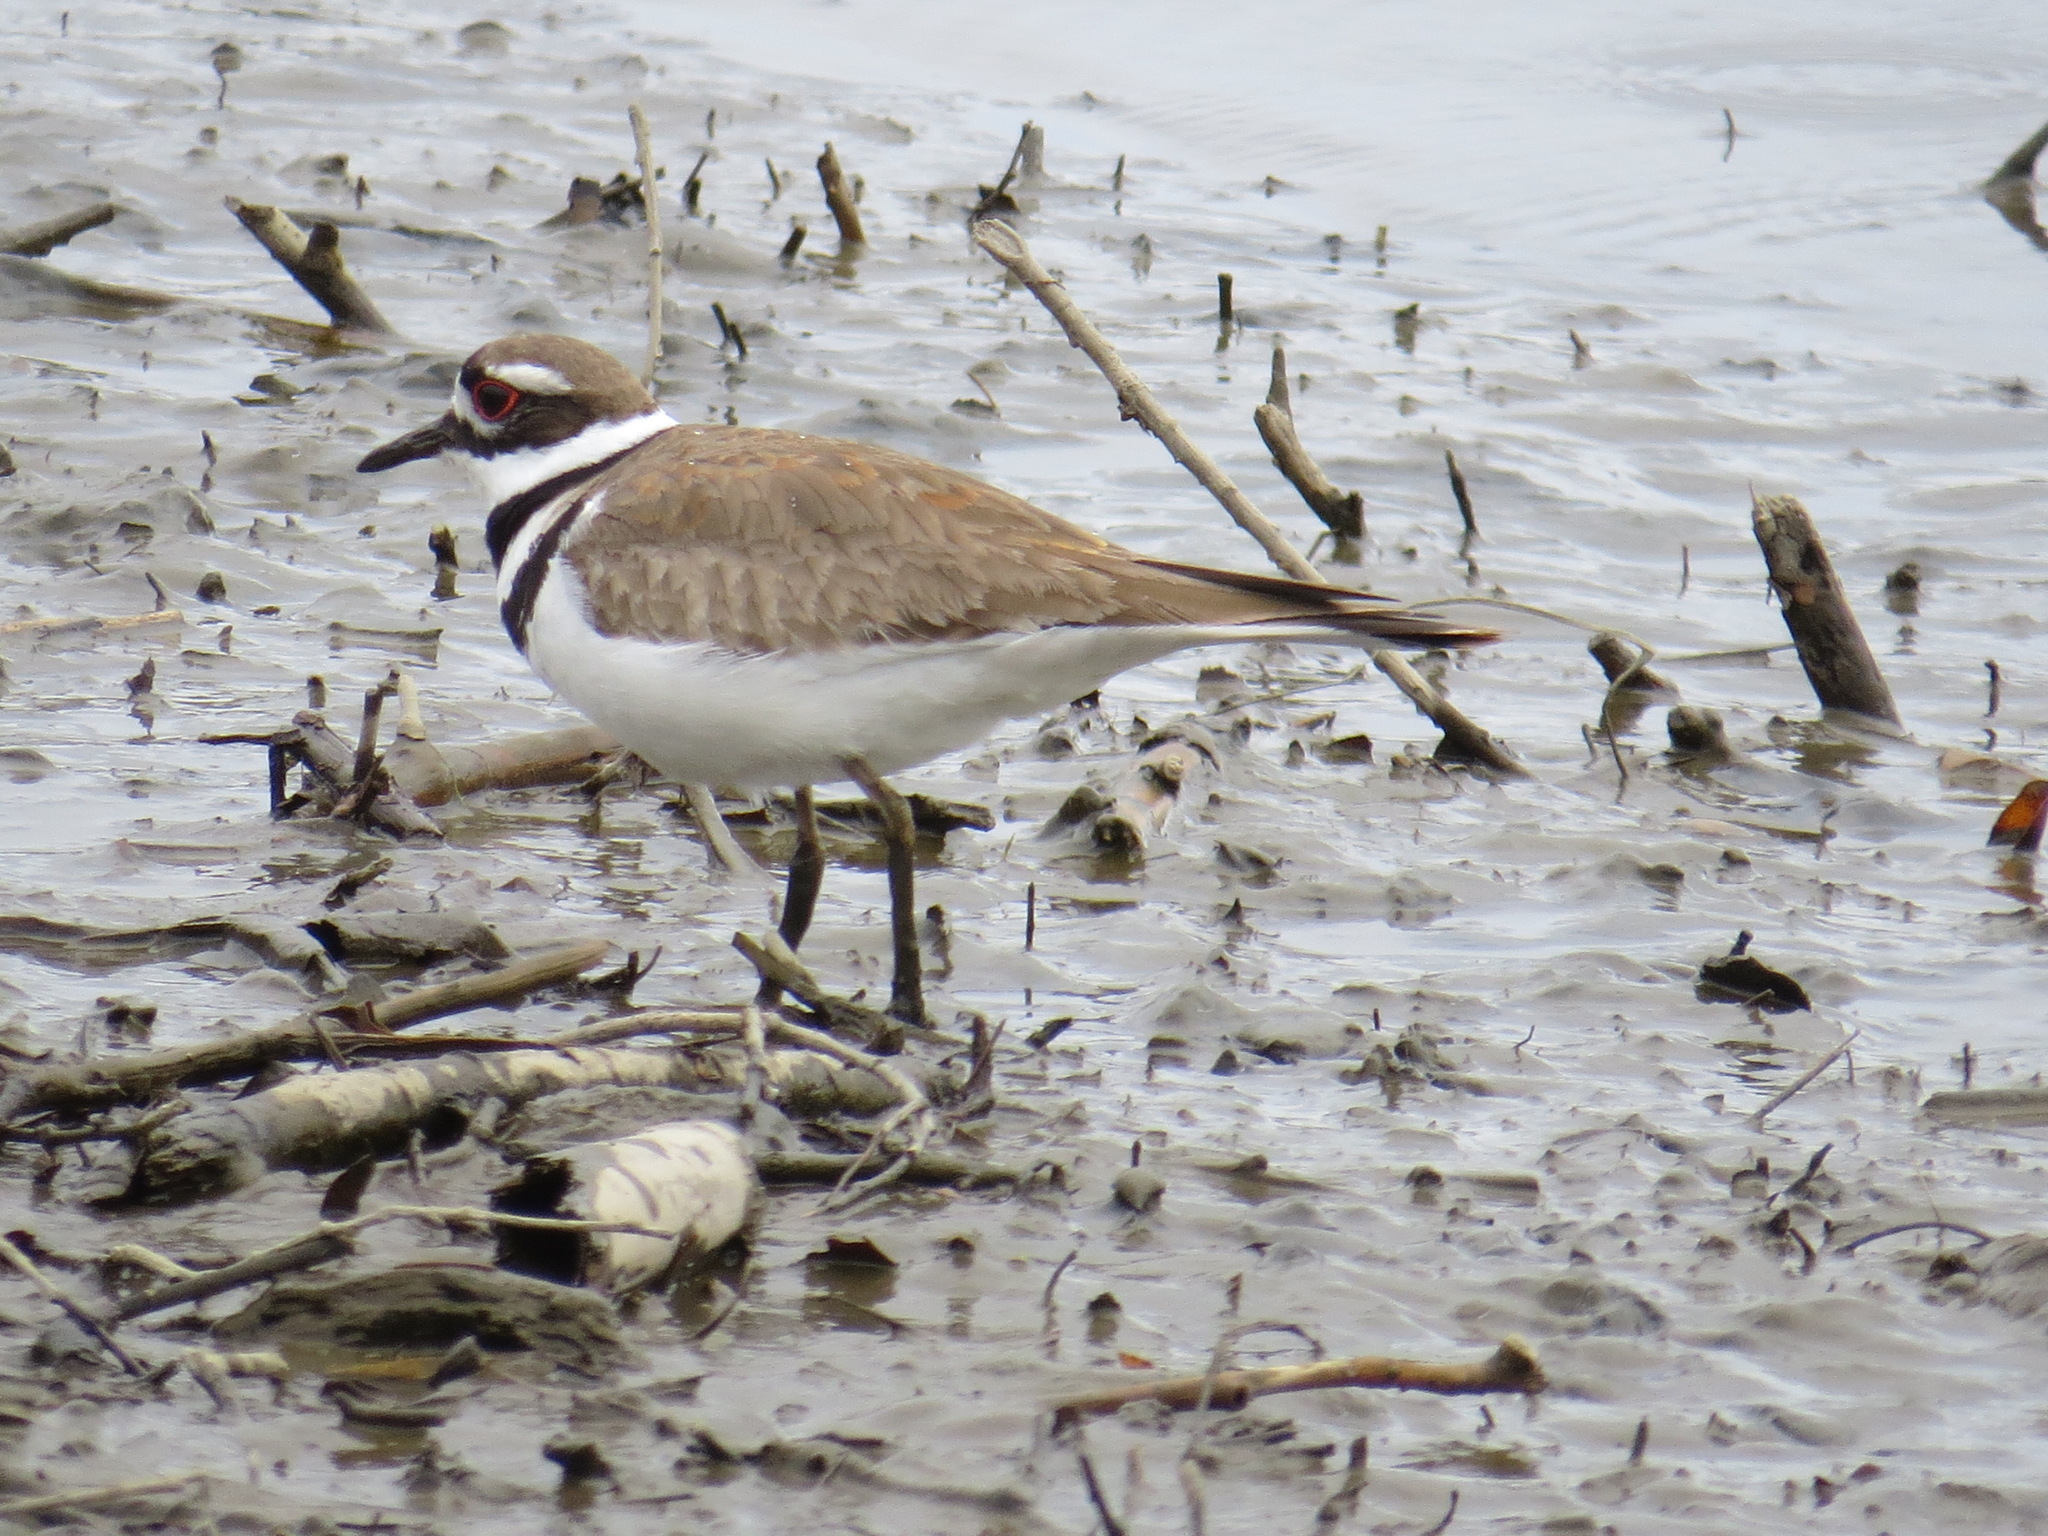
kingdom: Animalia
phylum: Chordata
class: Aves
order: Charadriiformes
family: Charadriidae
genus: Charadrius
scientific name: Charadrius vociferus
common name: Killdeer
